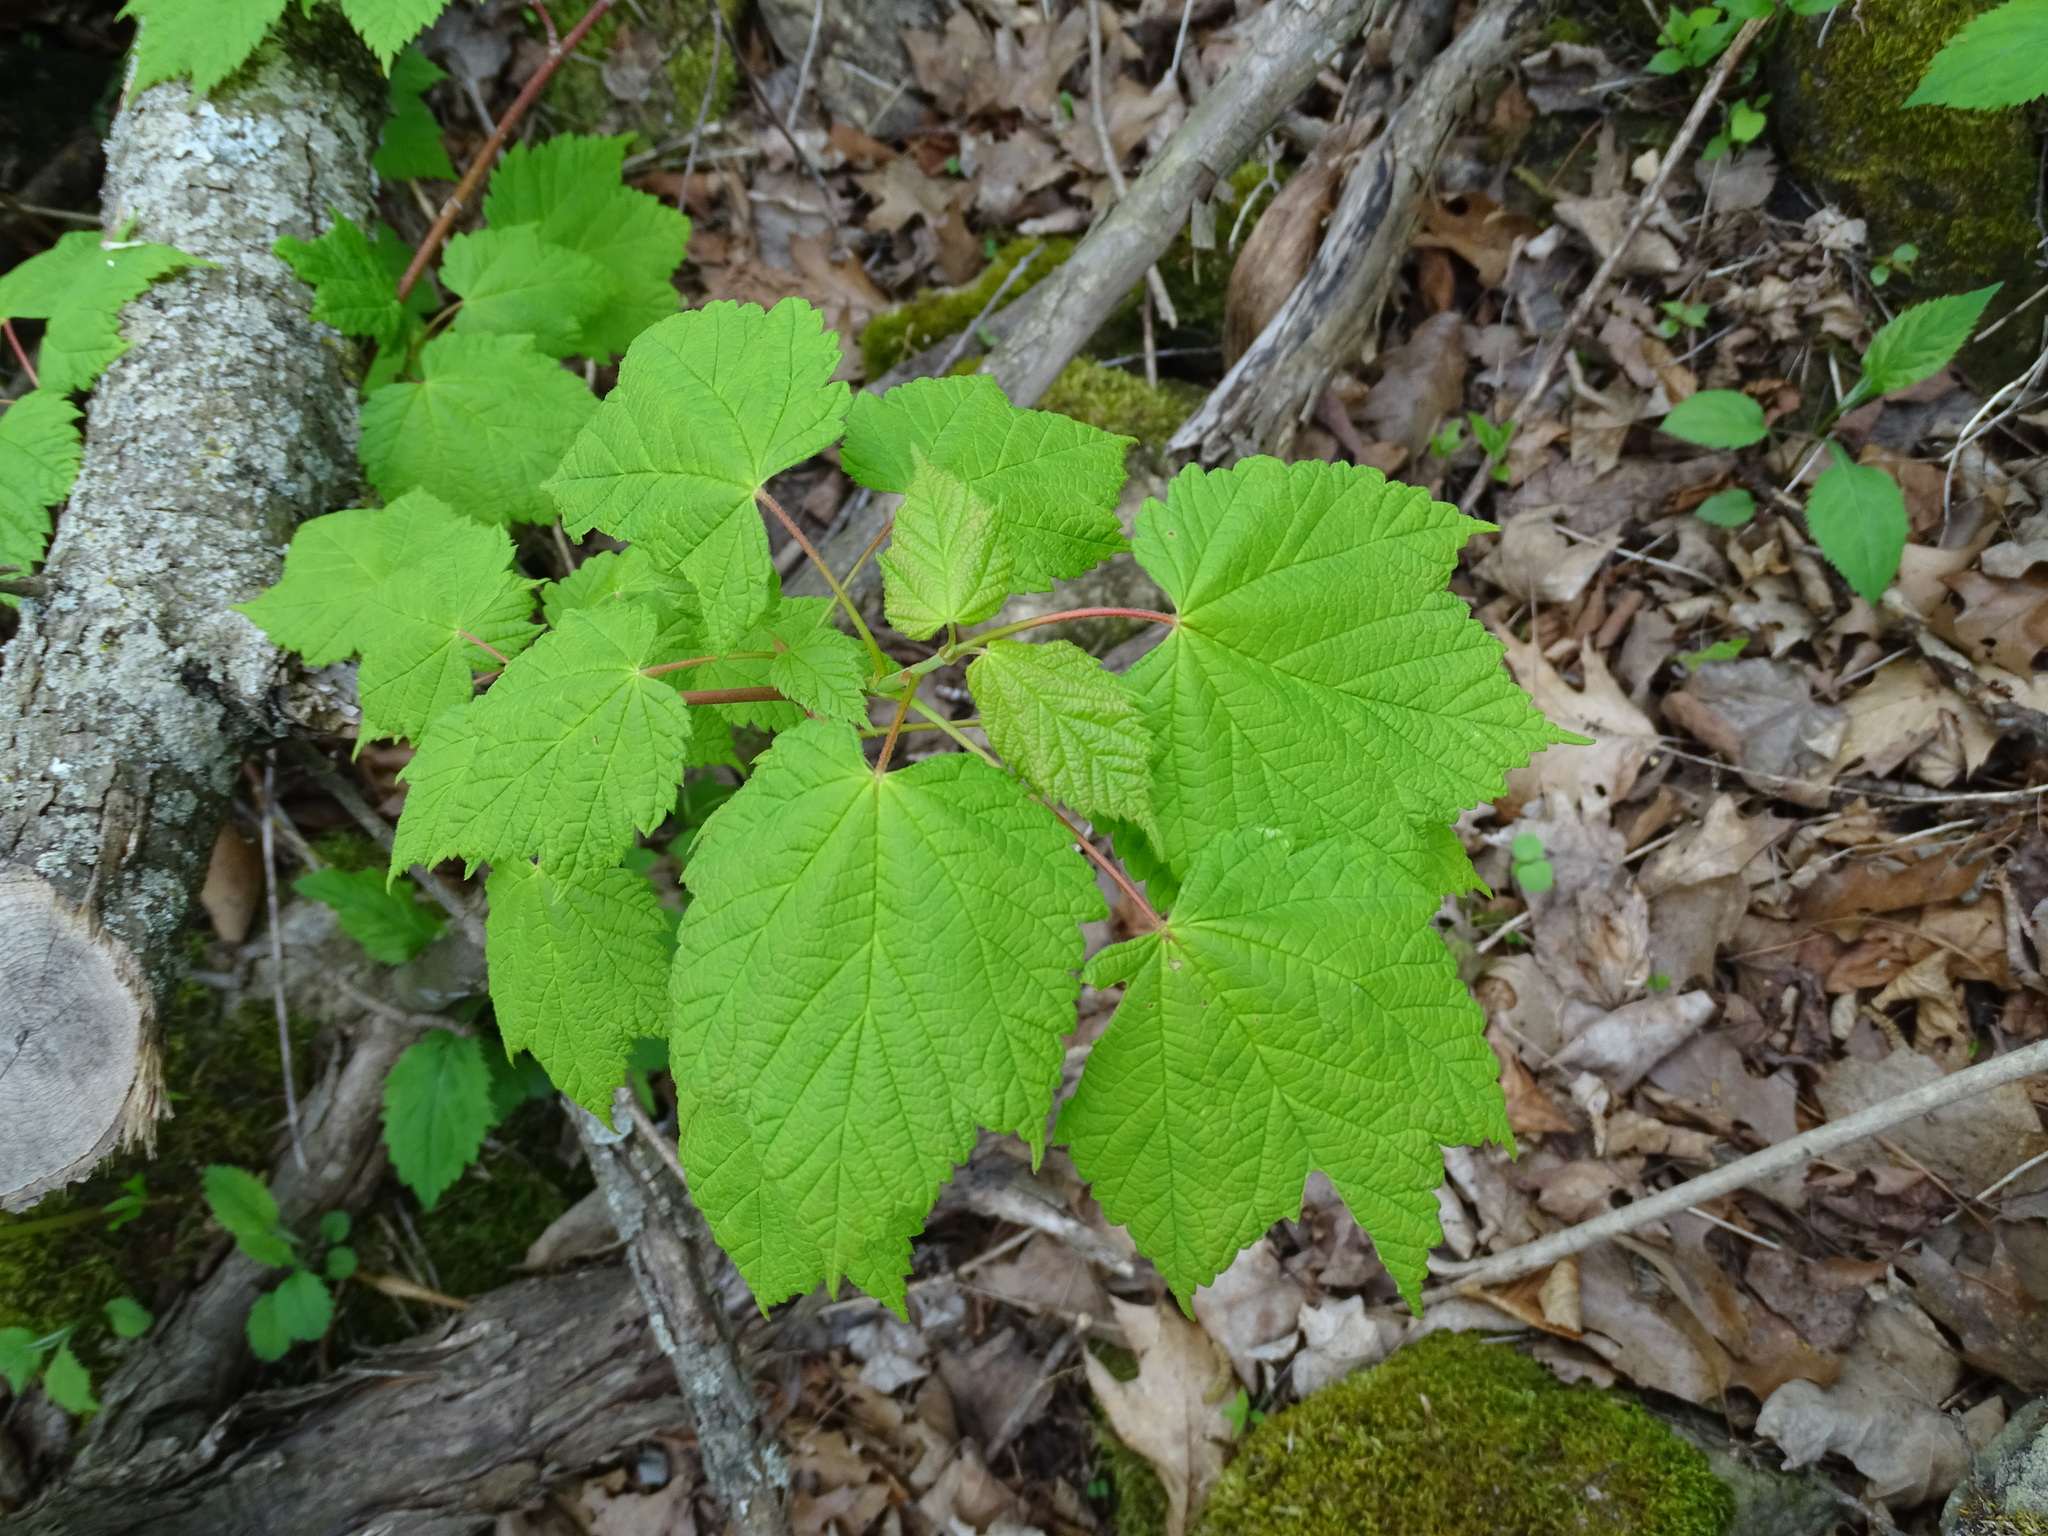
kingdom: Plantae
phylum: Tracheophyta
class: Magnoliopsida
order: Sapindales
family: Sapindaceae
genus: Acer
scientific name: Acer spicatum
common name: Mountain maple
